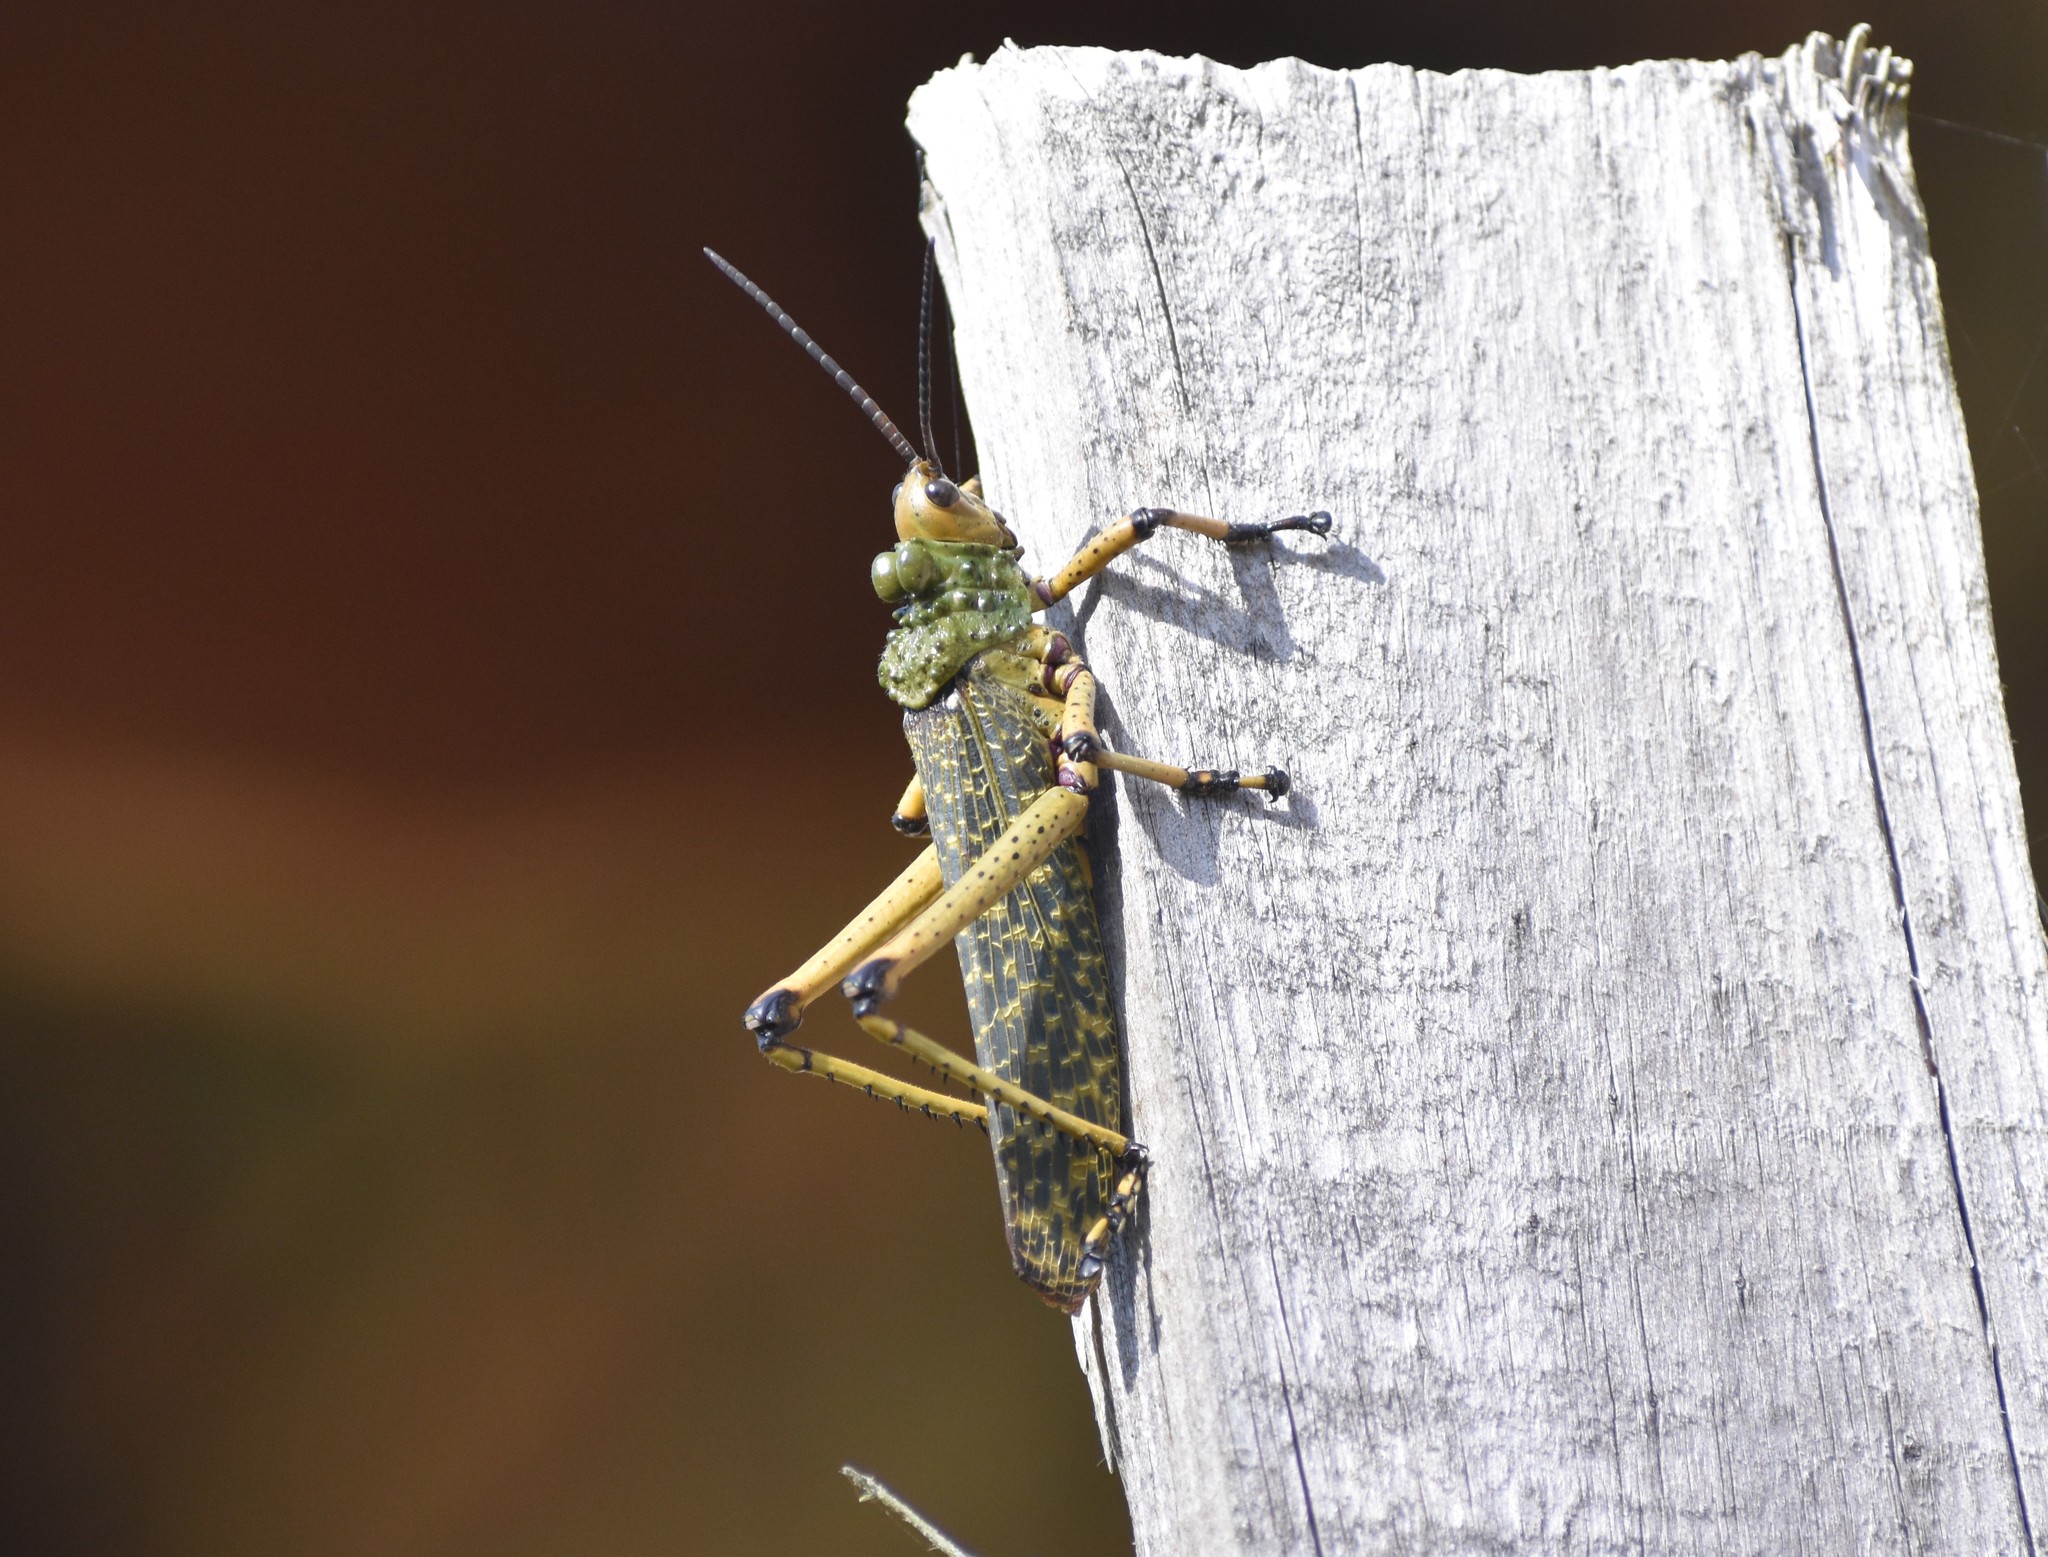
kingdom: Animalia
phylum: Arthropoda
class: Insecta
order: Orthoptera
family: Pyrgomorphidae
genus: Phymateus
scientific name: Phymateus leprosus
